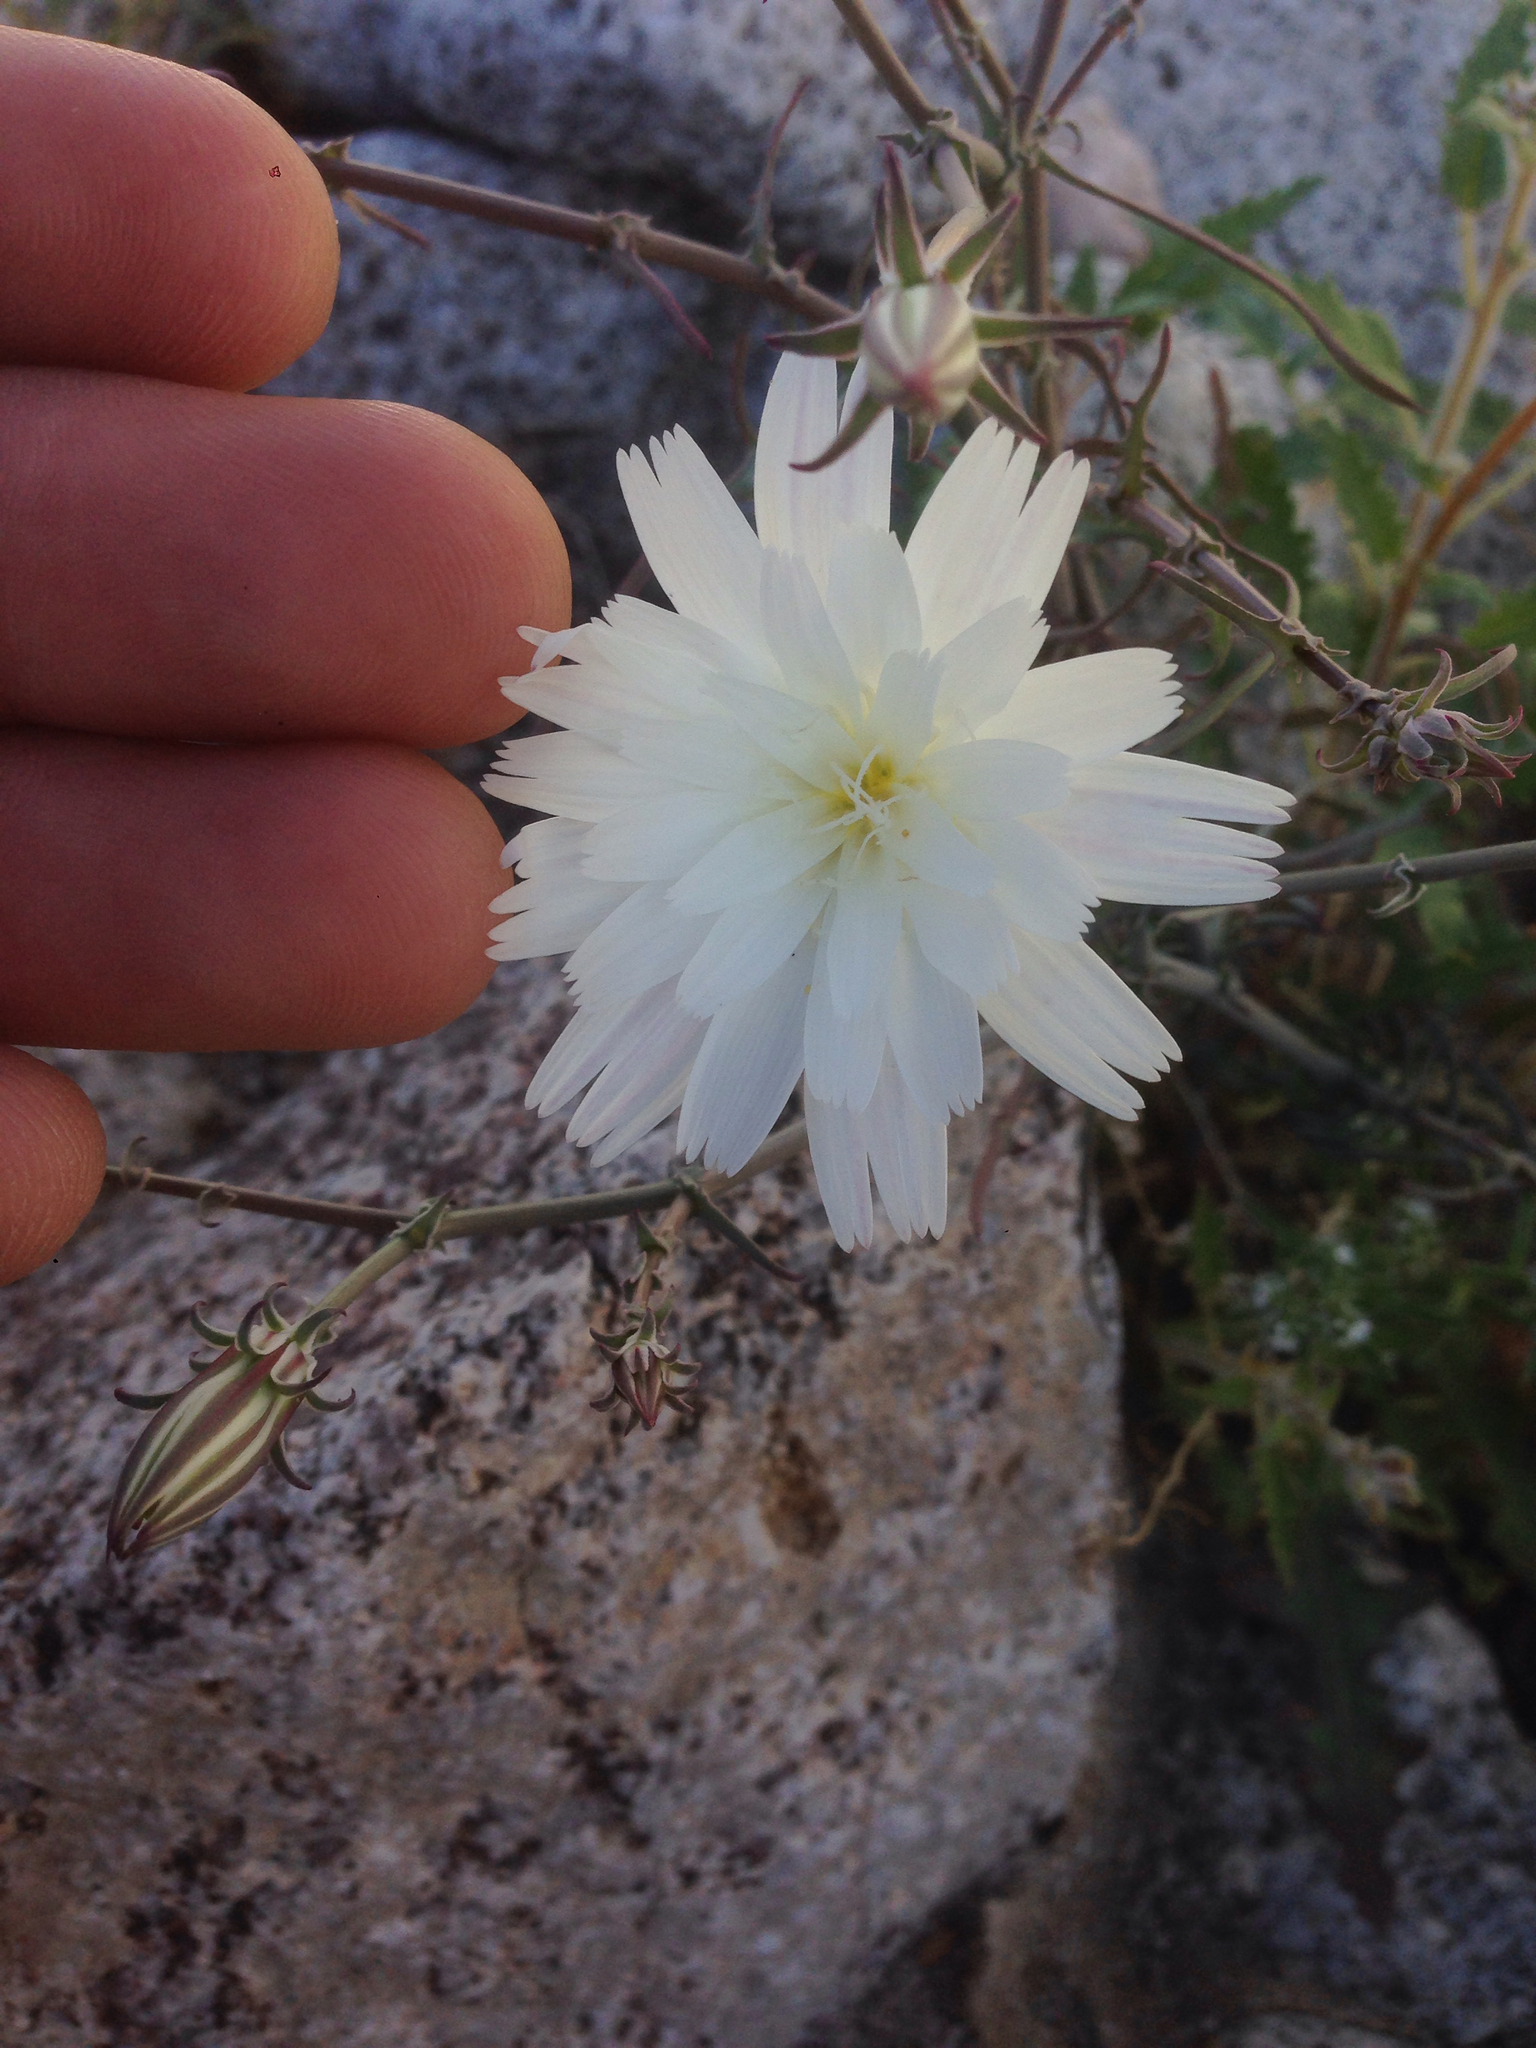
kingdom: Plantae
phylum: Tracheophyta
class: Magnoliopsida
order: Asterales
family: Asteraceae
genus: Rafinesquia
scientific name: Rafinesquia neomexicana
